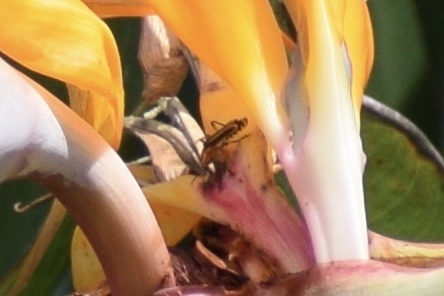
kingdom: Animalia
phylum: Arthropoda
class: Insecta
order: Coleoptera
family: Cantharidae
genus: Chauliognathus
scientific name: Chauliognathus marginatus
